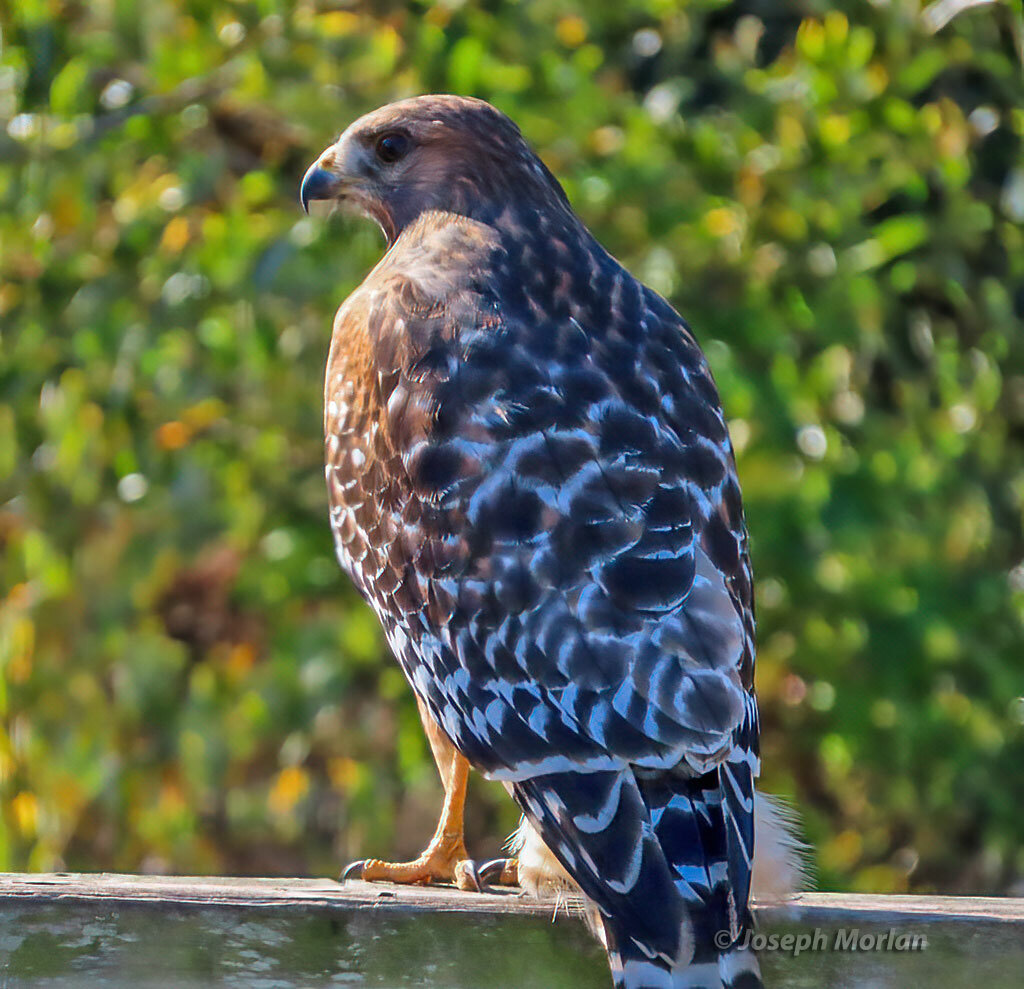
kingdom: Animalia
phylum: Chordata
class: Aves
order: Accipitriformes
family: Accipitridae
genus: Buteo
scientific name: Buteo lineatus
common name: Red-shouldered hawk
